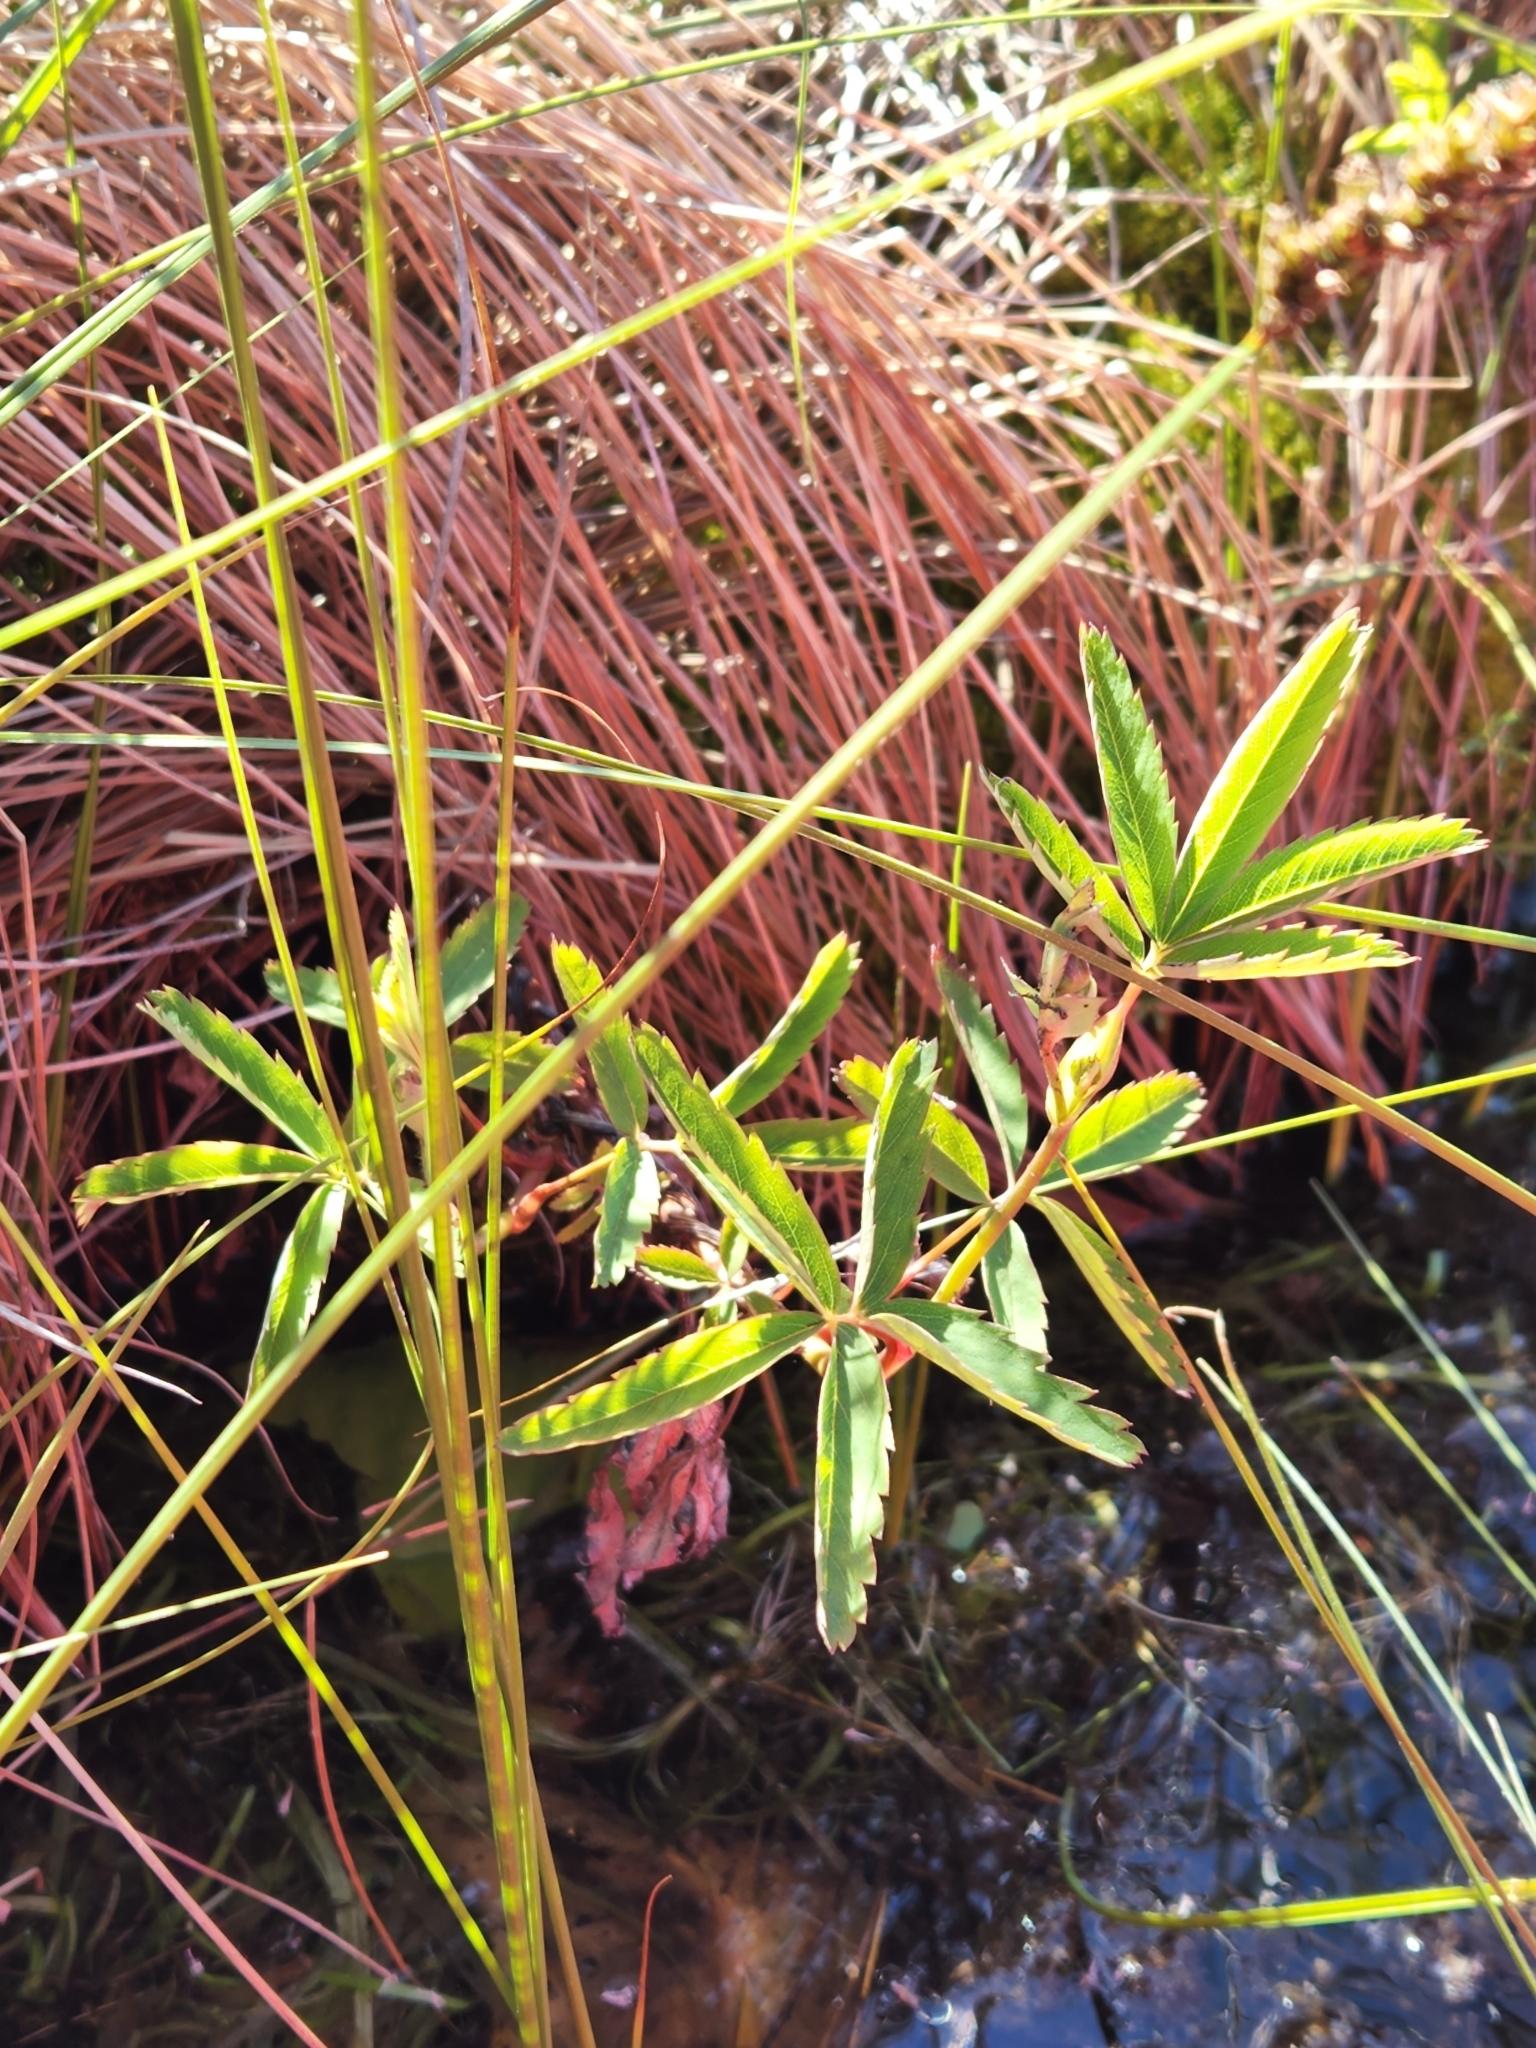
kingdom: Plantae
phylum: Tracheophyta
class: Magnoliopsida
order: Rosales
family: Rosaceae
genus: Comarum
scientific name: Comarum palustre
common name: Marsh cinquefoil
